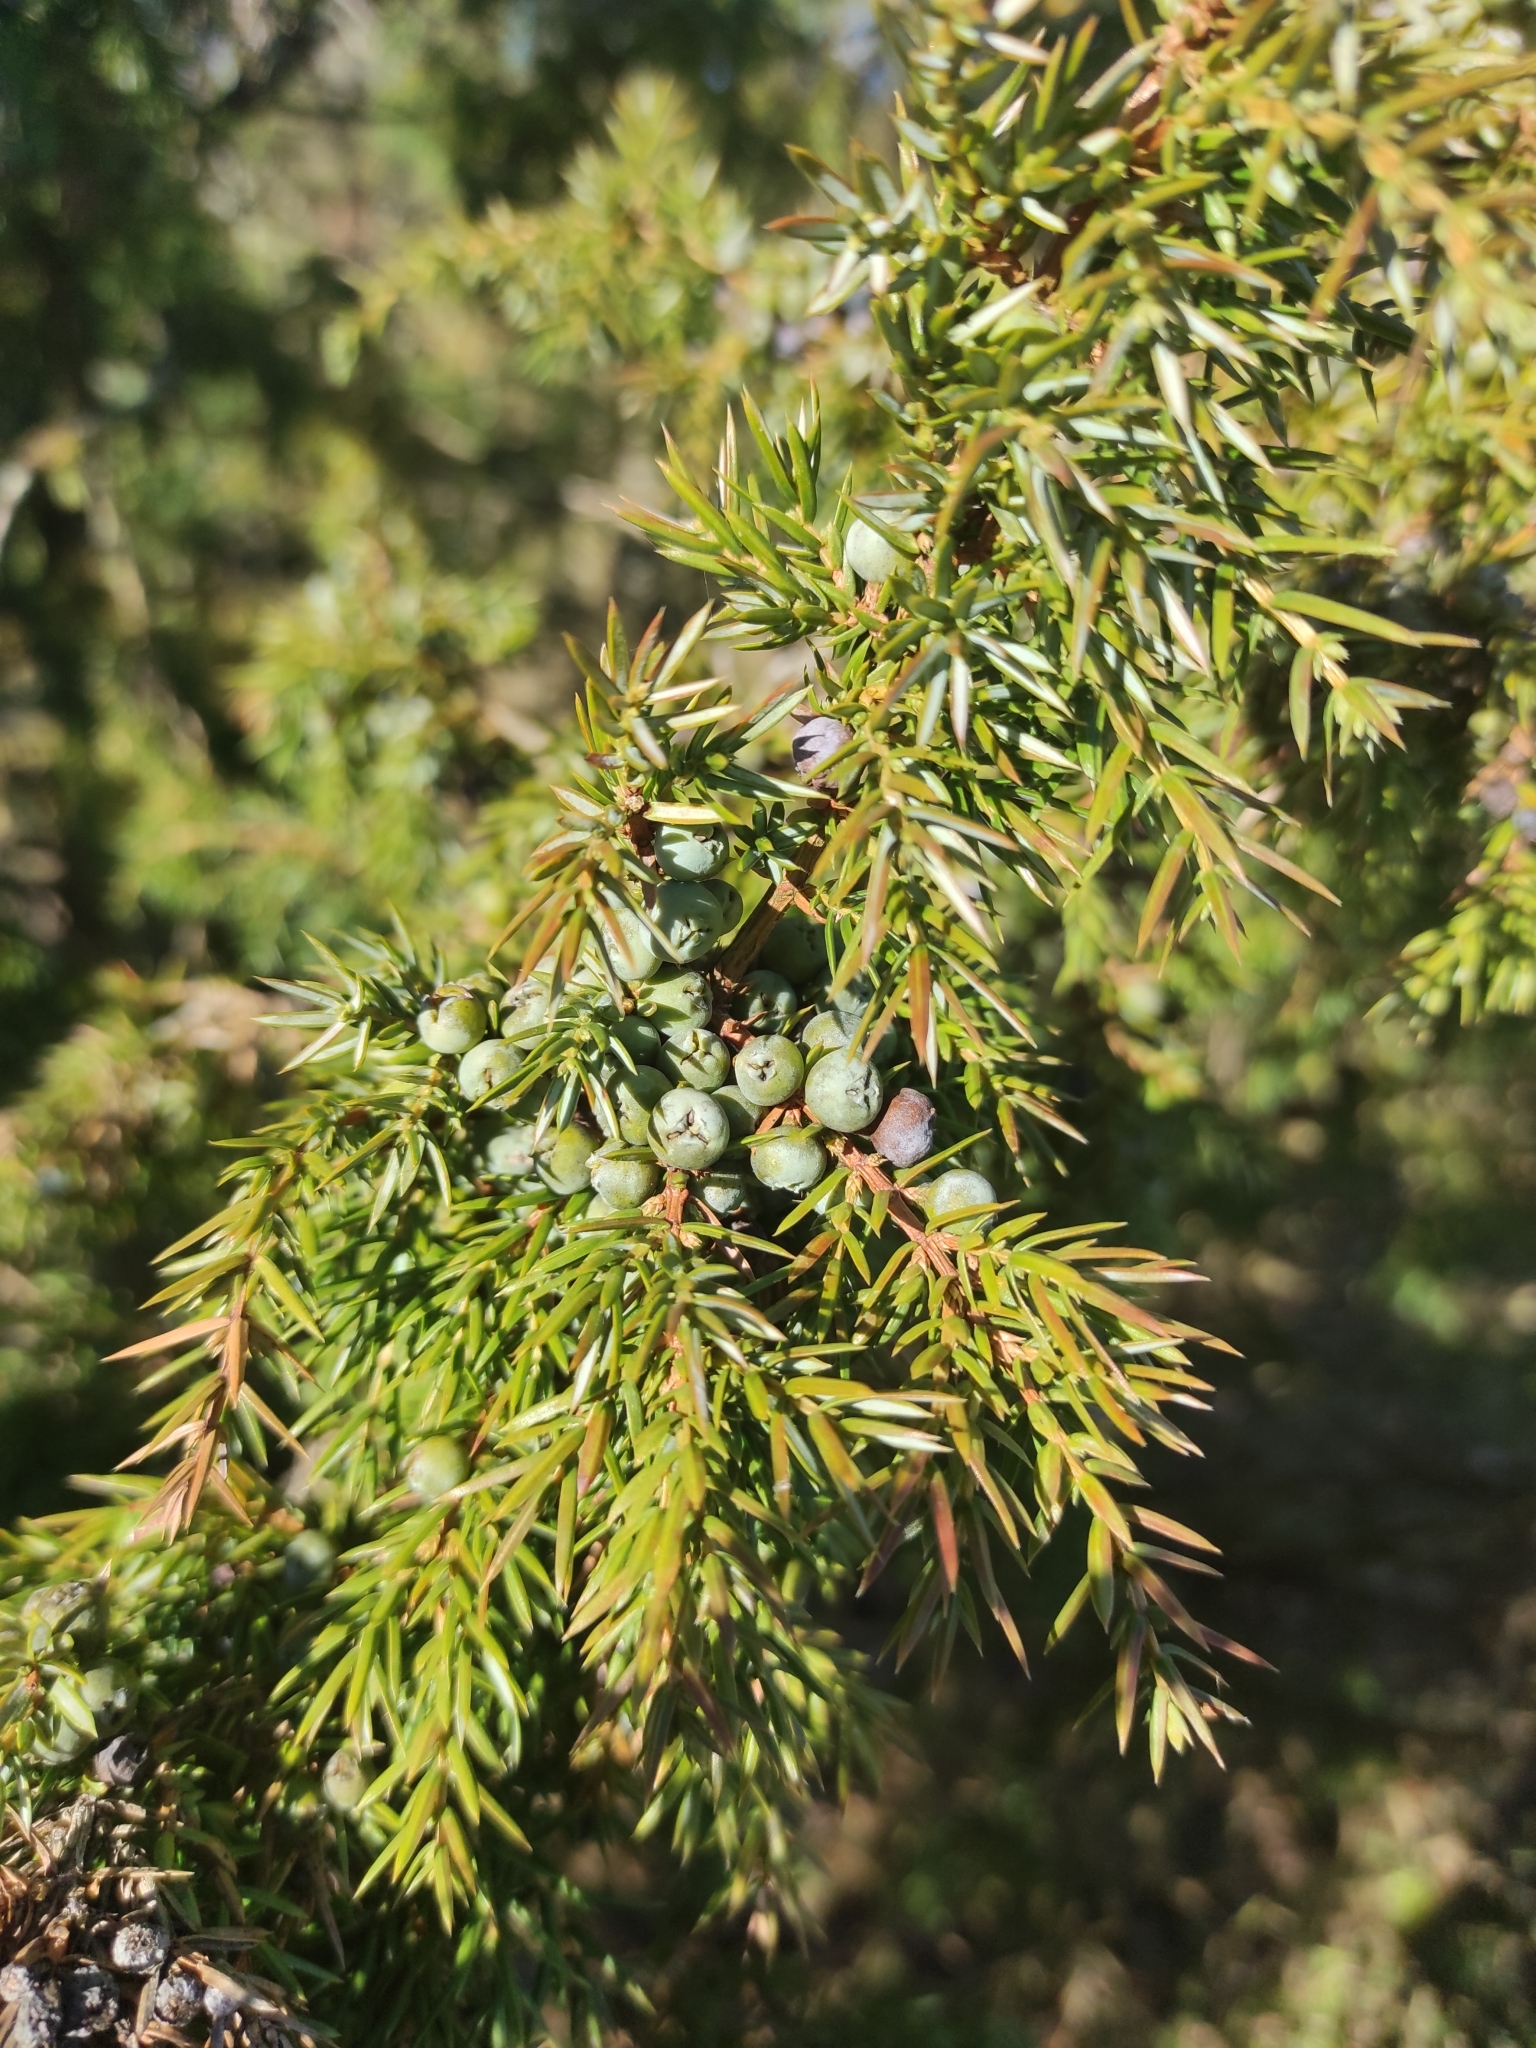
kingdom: Plantae
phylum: Tracheophyta
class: Pinopsida
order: Pinales
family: Cupressaceae
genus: Juniperus
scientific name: Juniperus communis
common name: Common juniper
